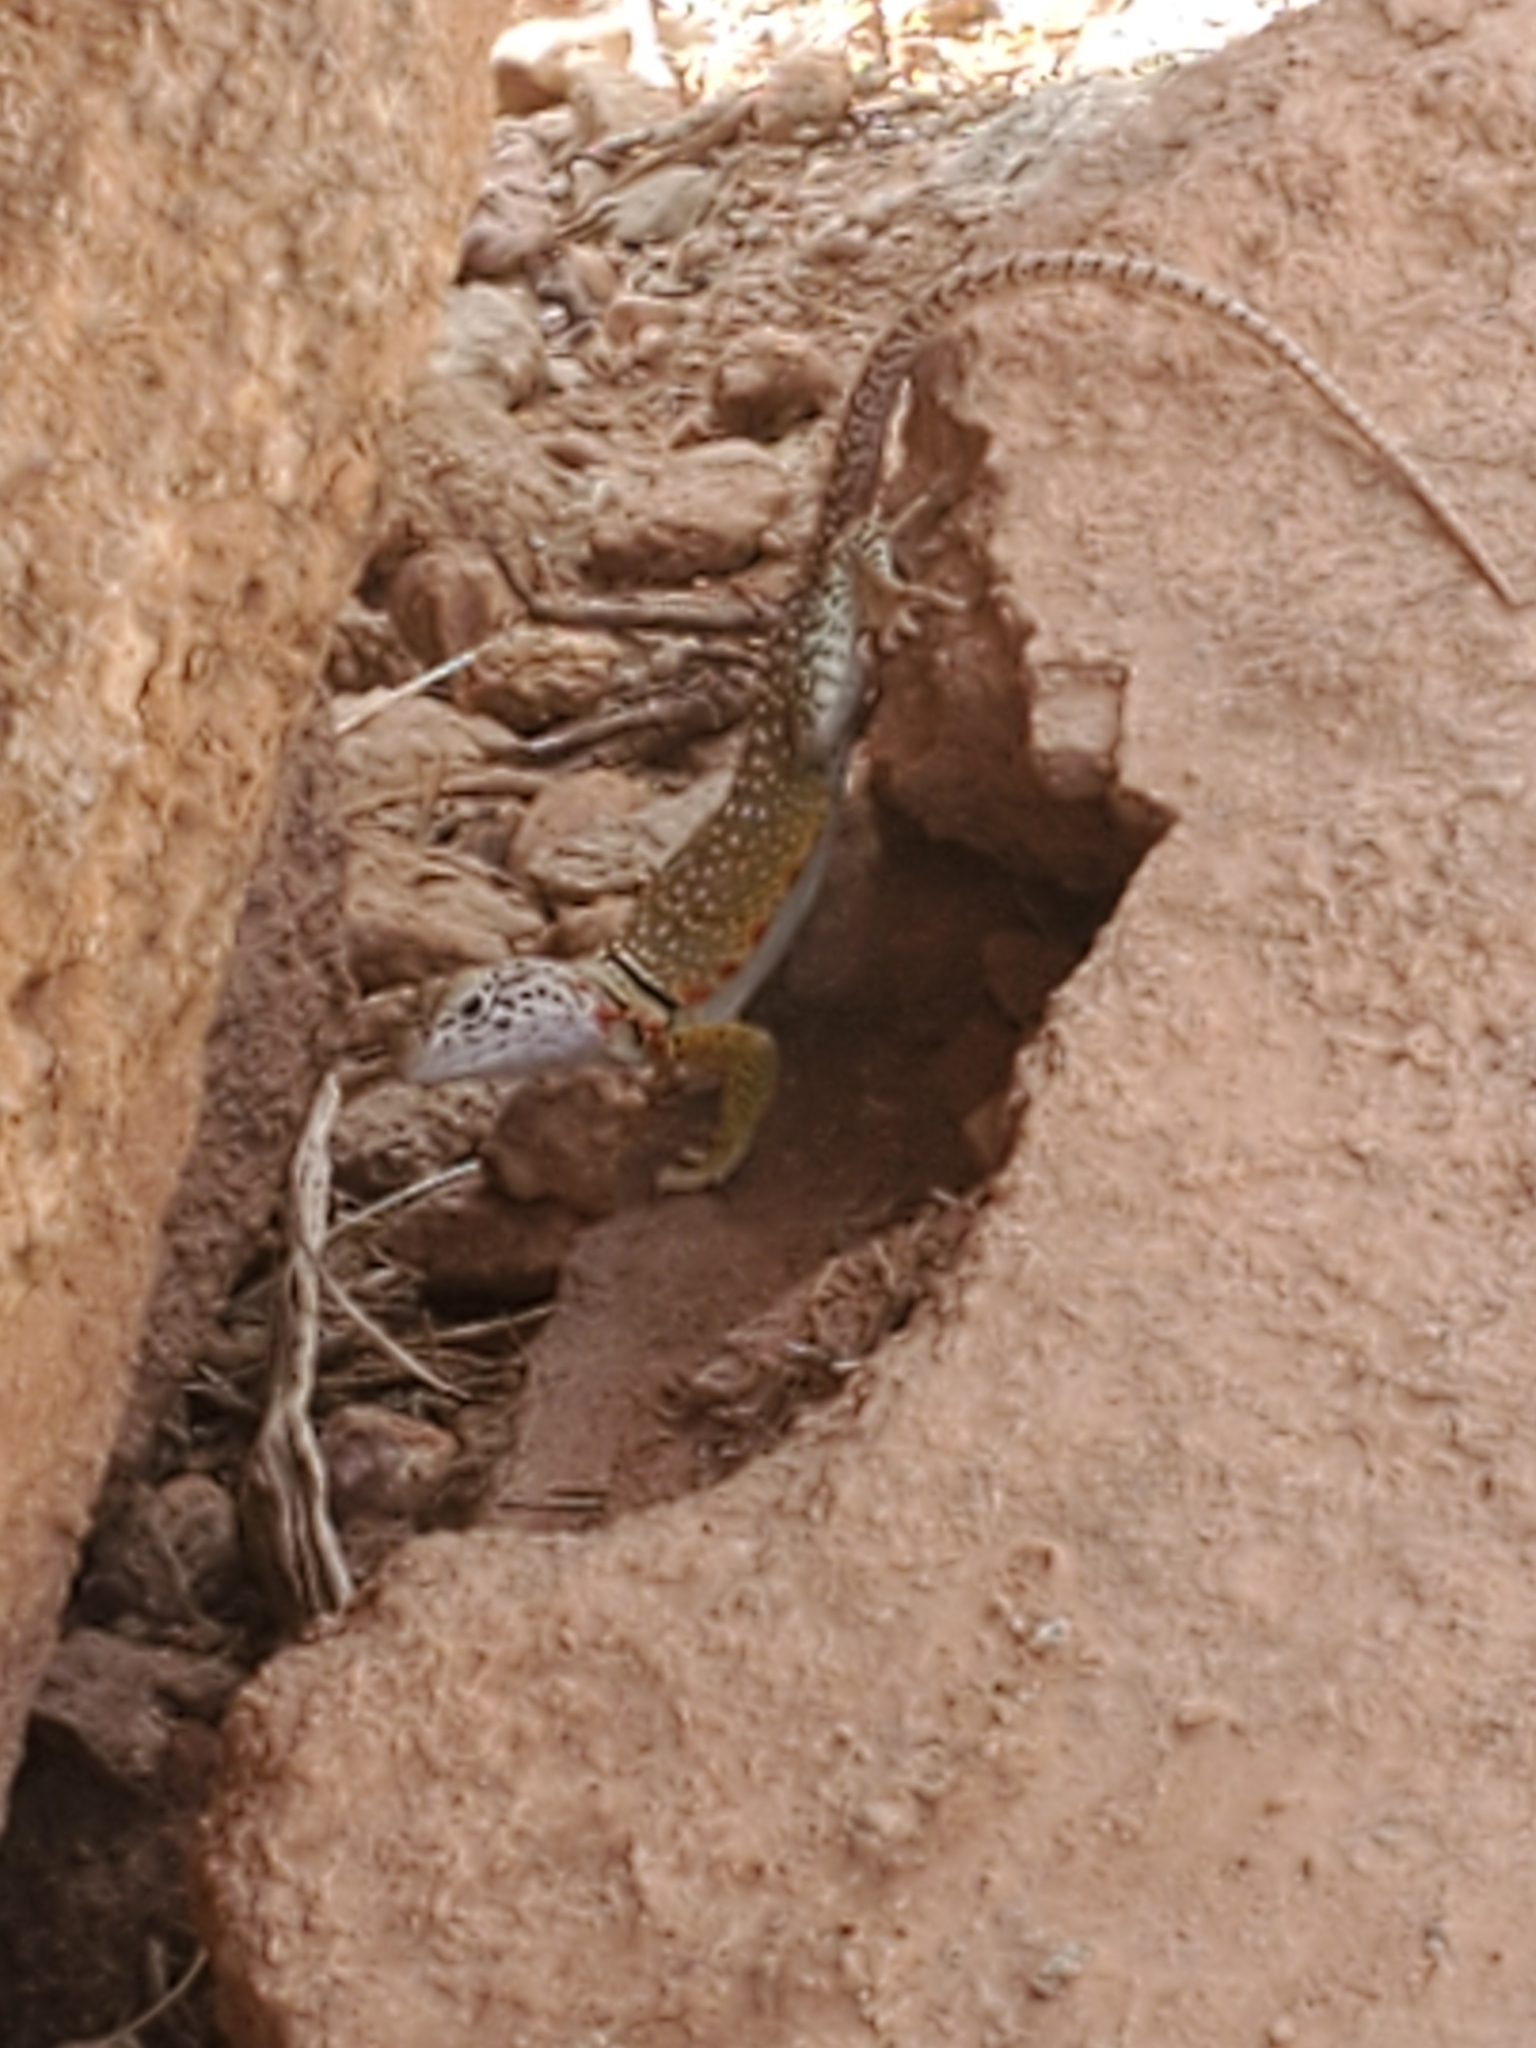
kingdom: Animalia
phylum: Chordata
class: Squamata
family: Crotaphytidae
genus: Crotaphytus
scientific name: Crotaphytus collaris
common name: Collared lizard
